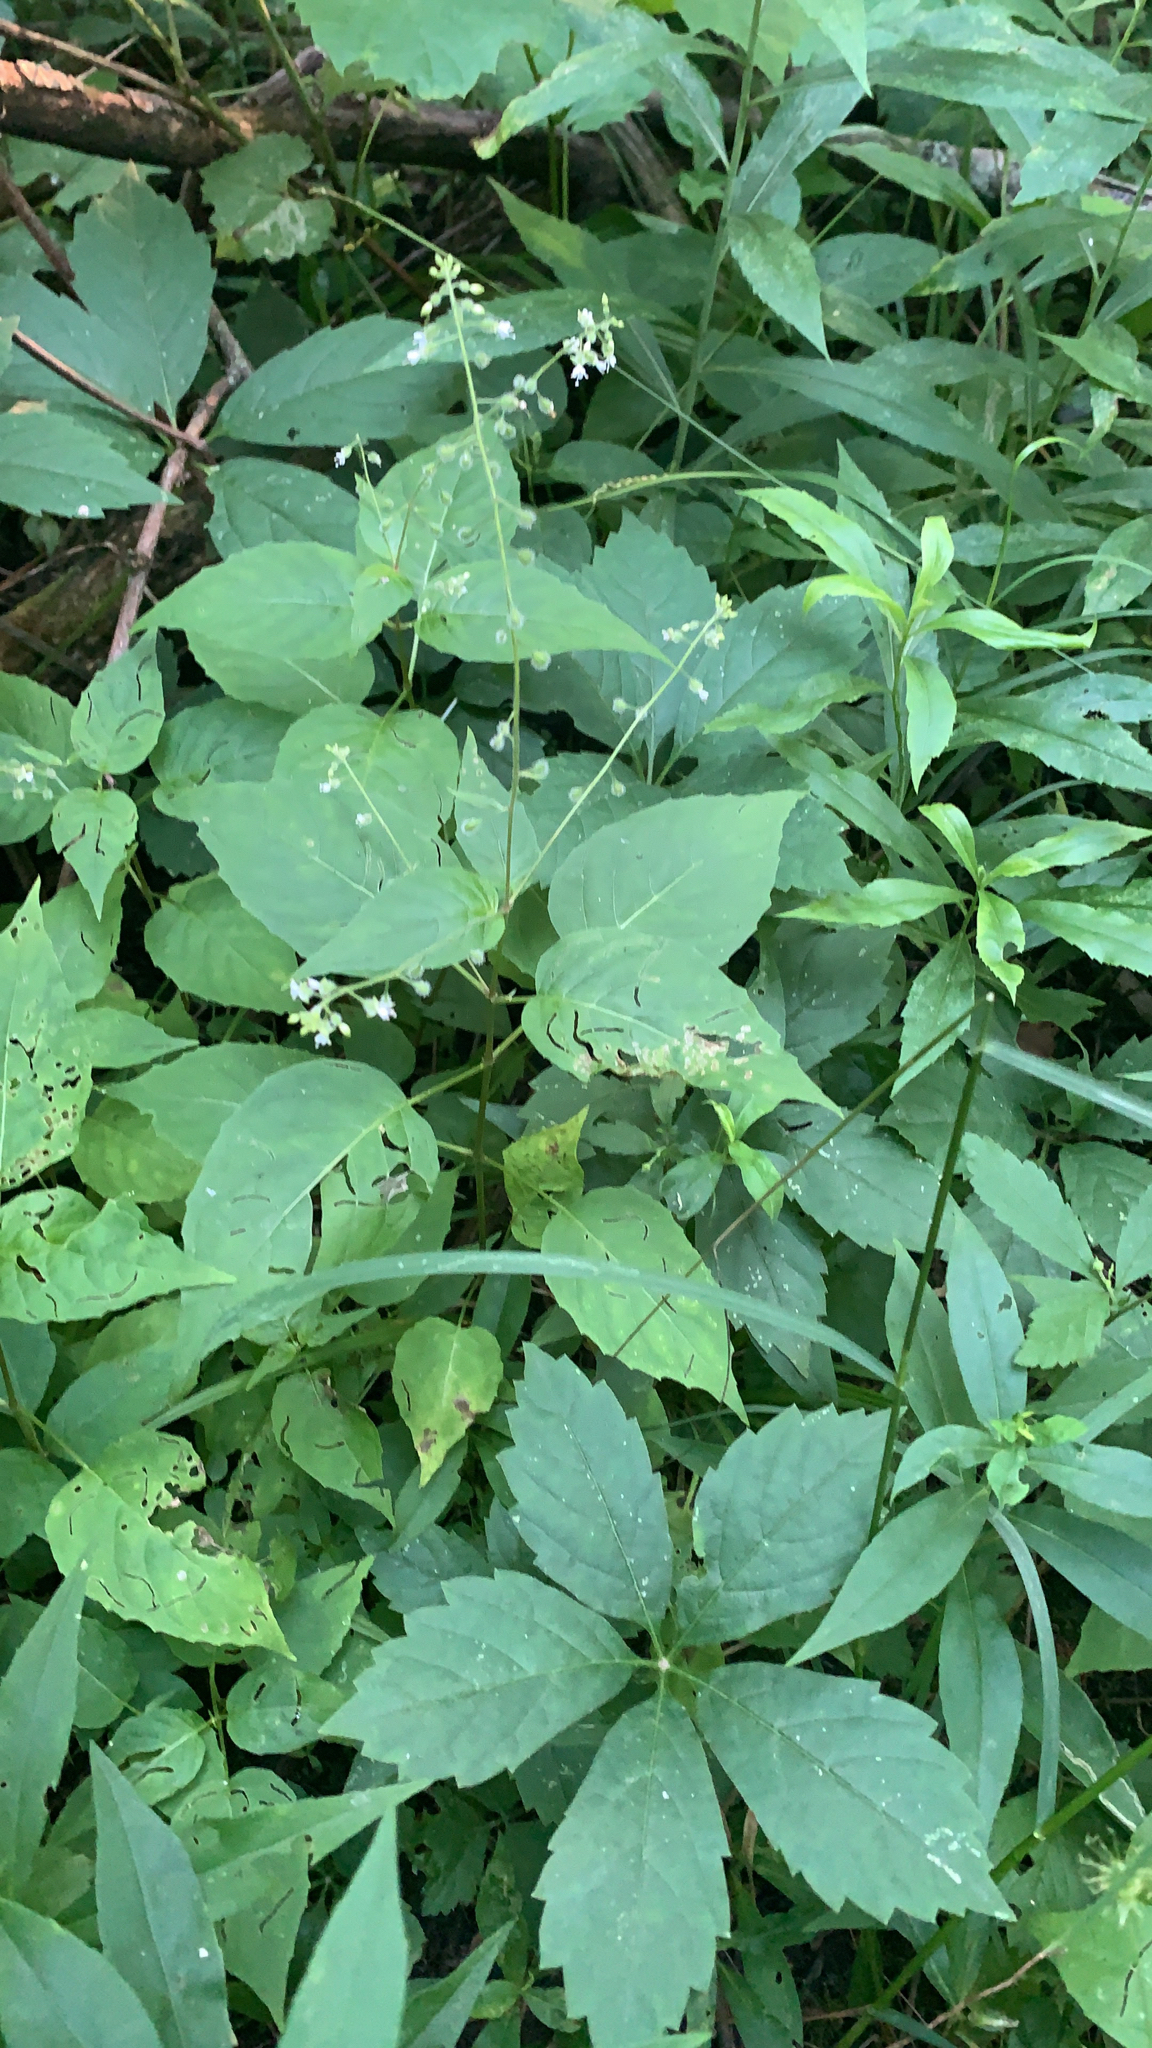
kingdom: Plantae
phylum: Tracheophyta
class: Magnoliopsida
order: Myrtales
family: Onagraceae
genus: Circaea
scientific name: Circaea canadensis
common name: Broad-leaved enchanter's nightshade
